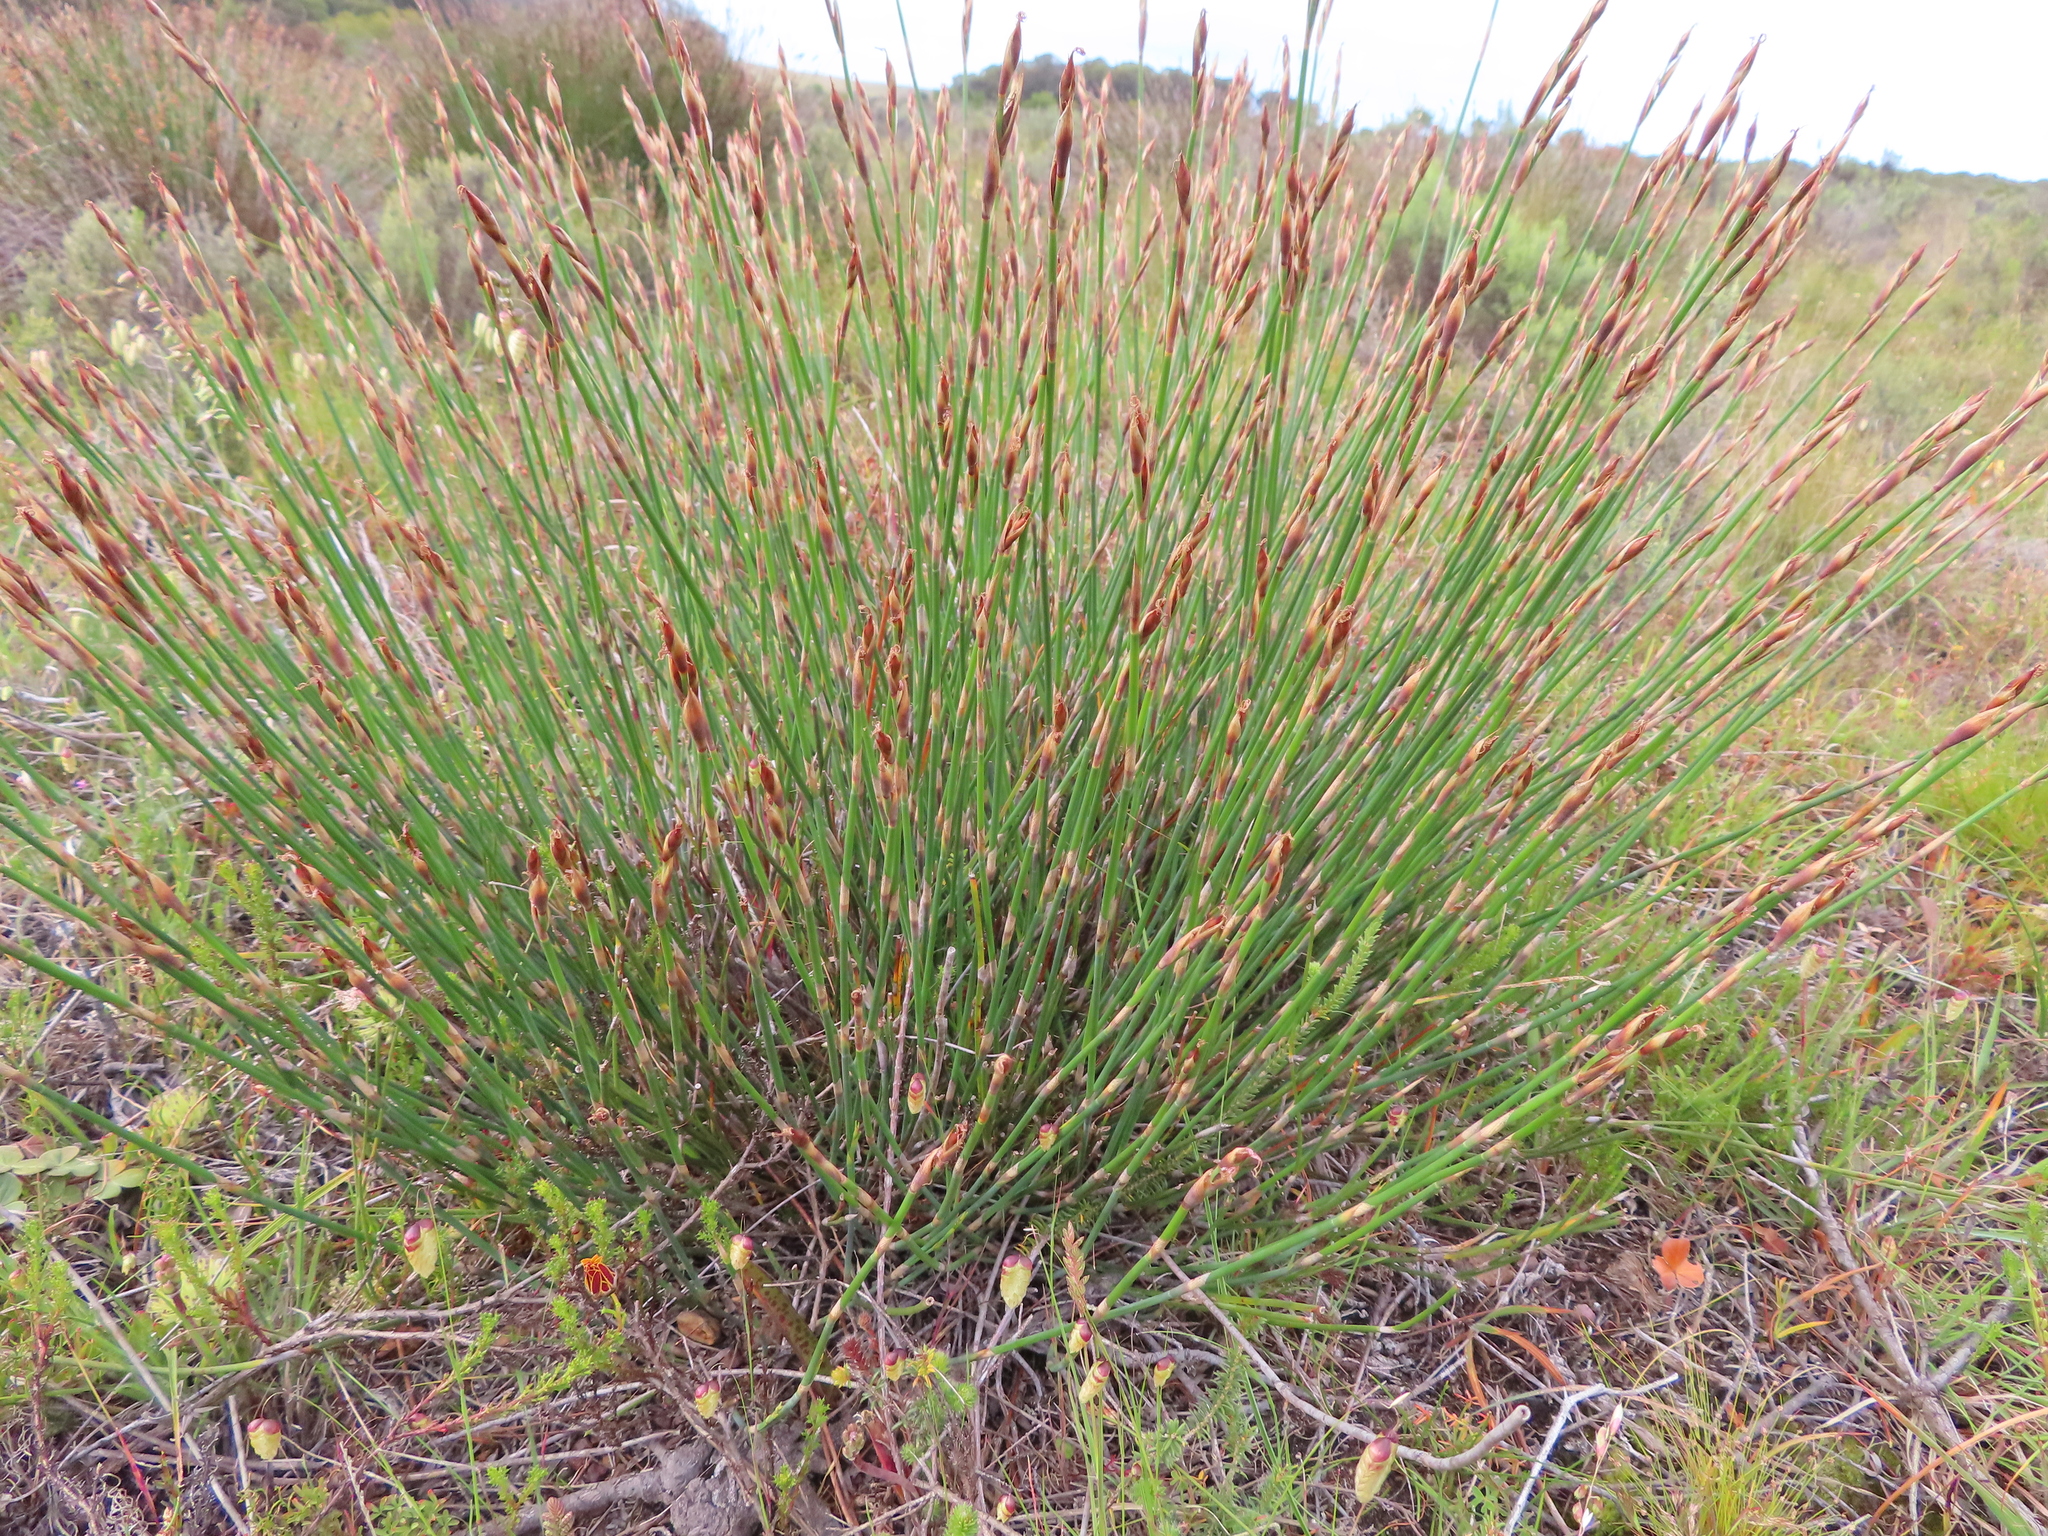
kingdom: Plantae
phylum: Tracheophyta
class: Liliopsida
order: Poales
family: Restionaceae
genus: Cannomois
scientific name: Cannomois parviflora
